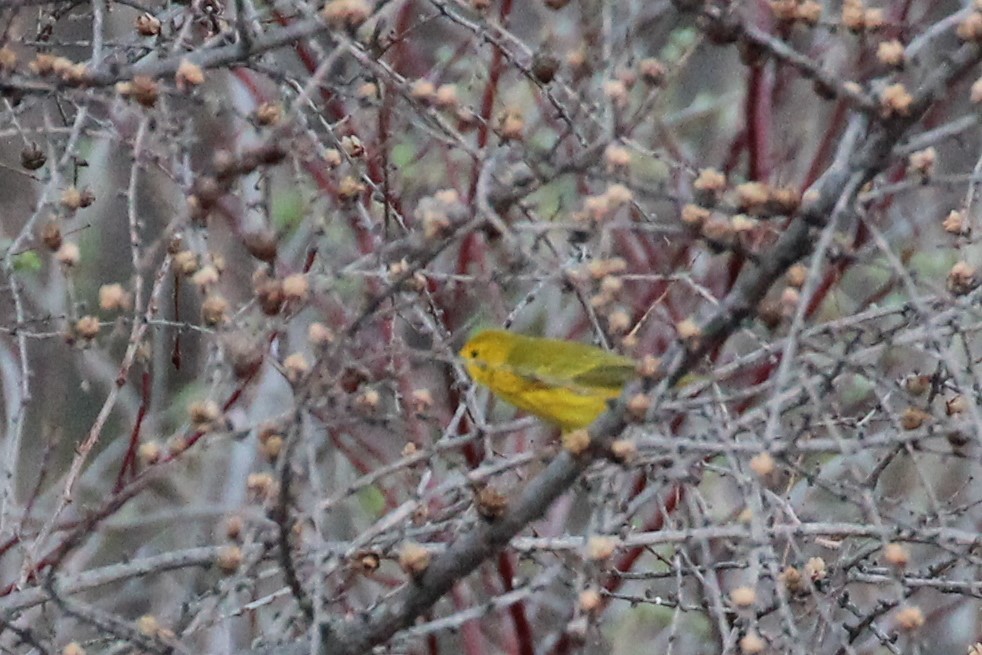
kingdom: Animalia
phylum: Chordata
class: Aves
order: Passeriformes
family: Parulidae
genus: Setophaga
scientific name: Setophaga petechia
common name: Yellow warbler
